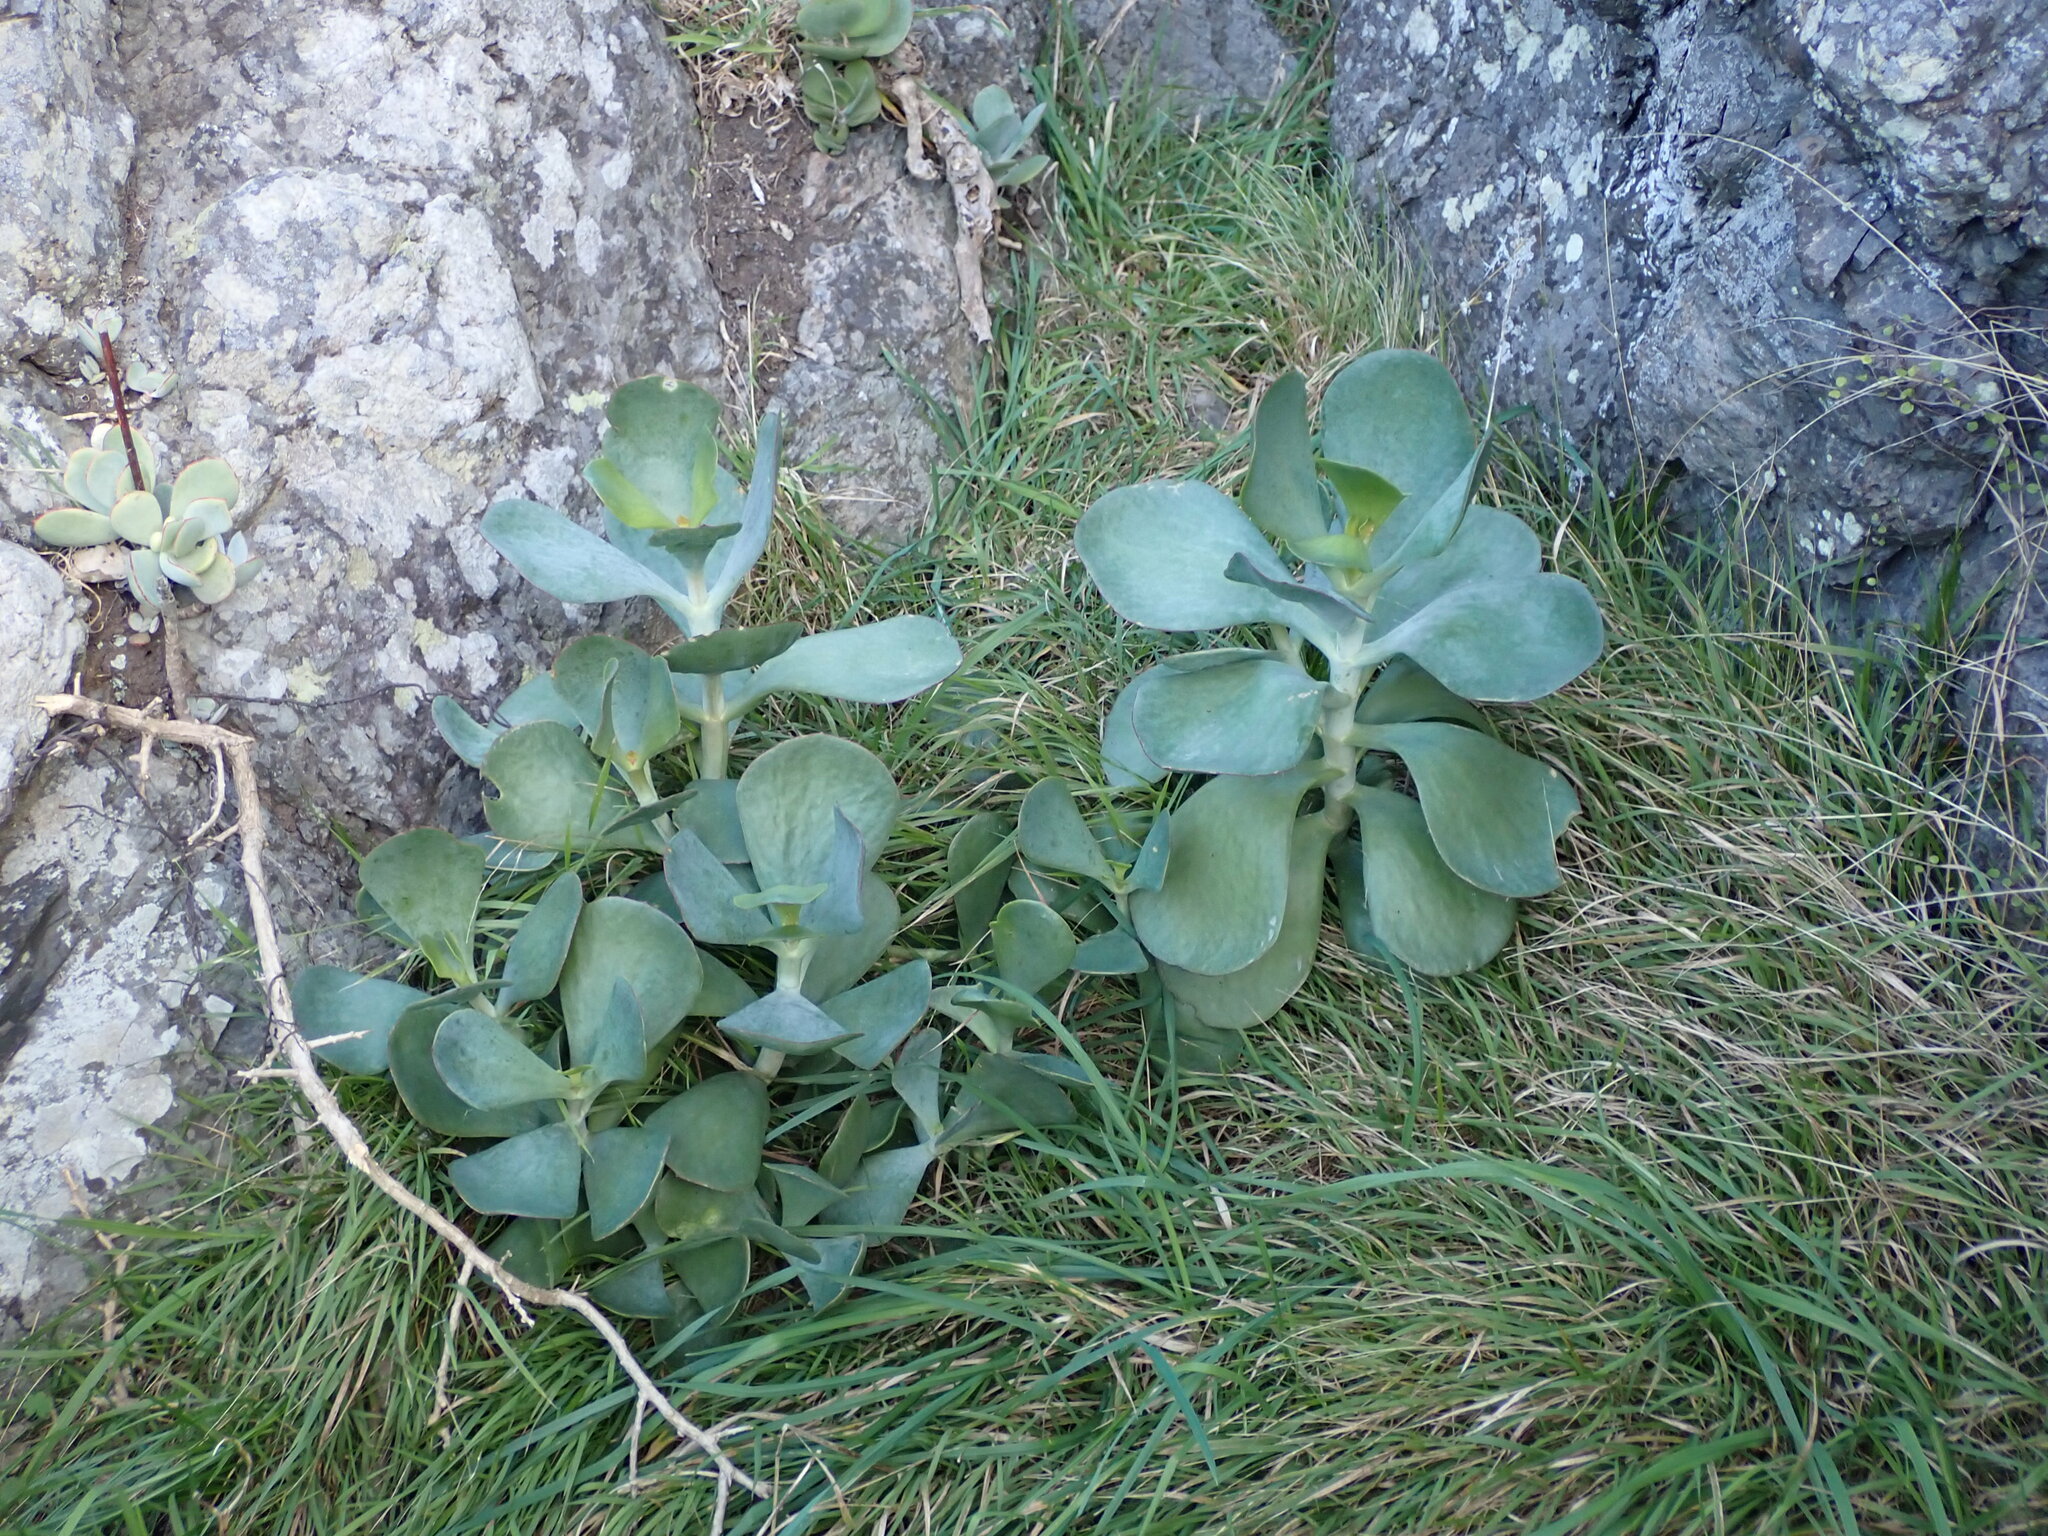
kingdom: Plantae
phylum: Tracheophyta
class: Magnoliopsida
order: Saxifragales
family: Crassulaceae
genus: Cotyledon
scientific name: Cotyledon orbiculata
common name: Pig's ear
